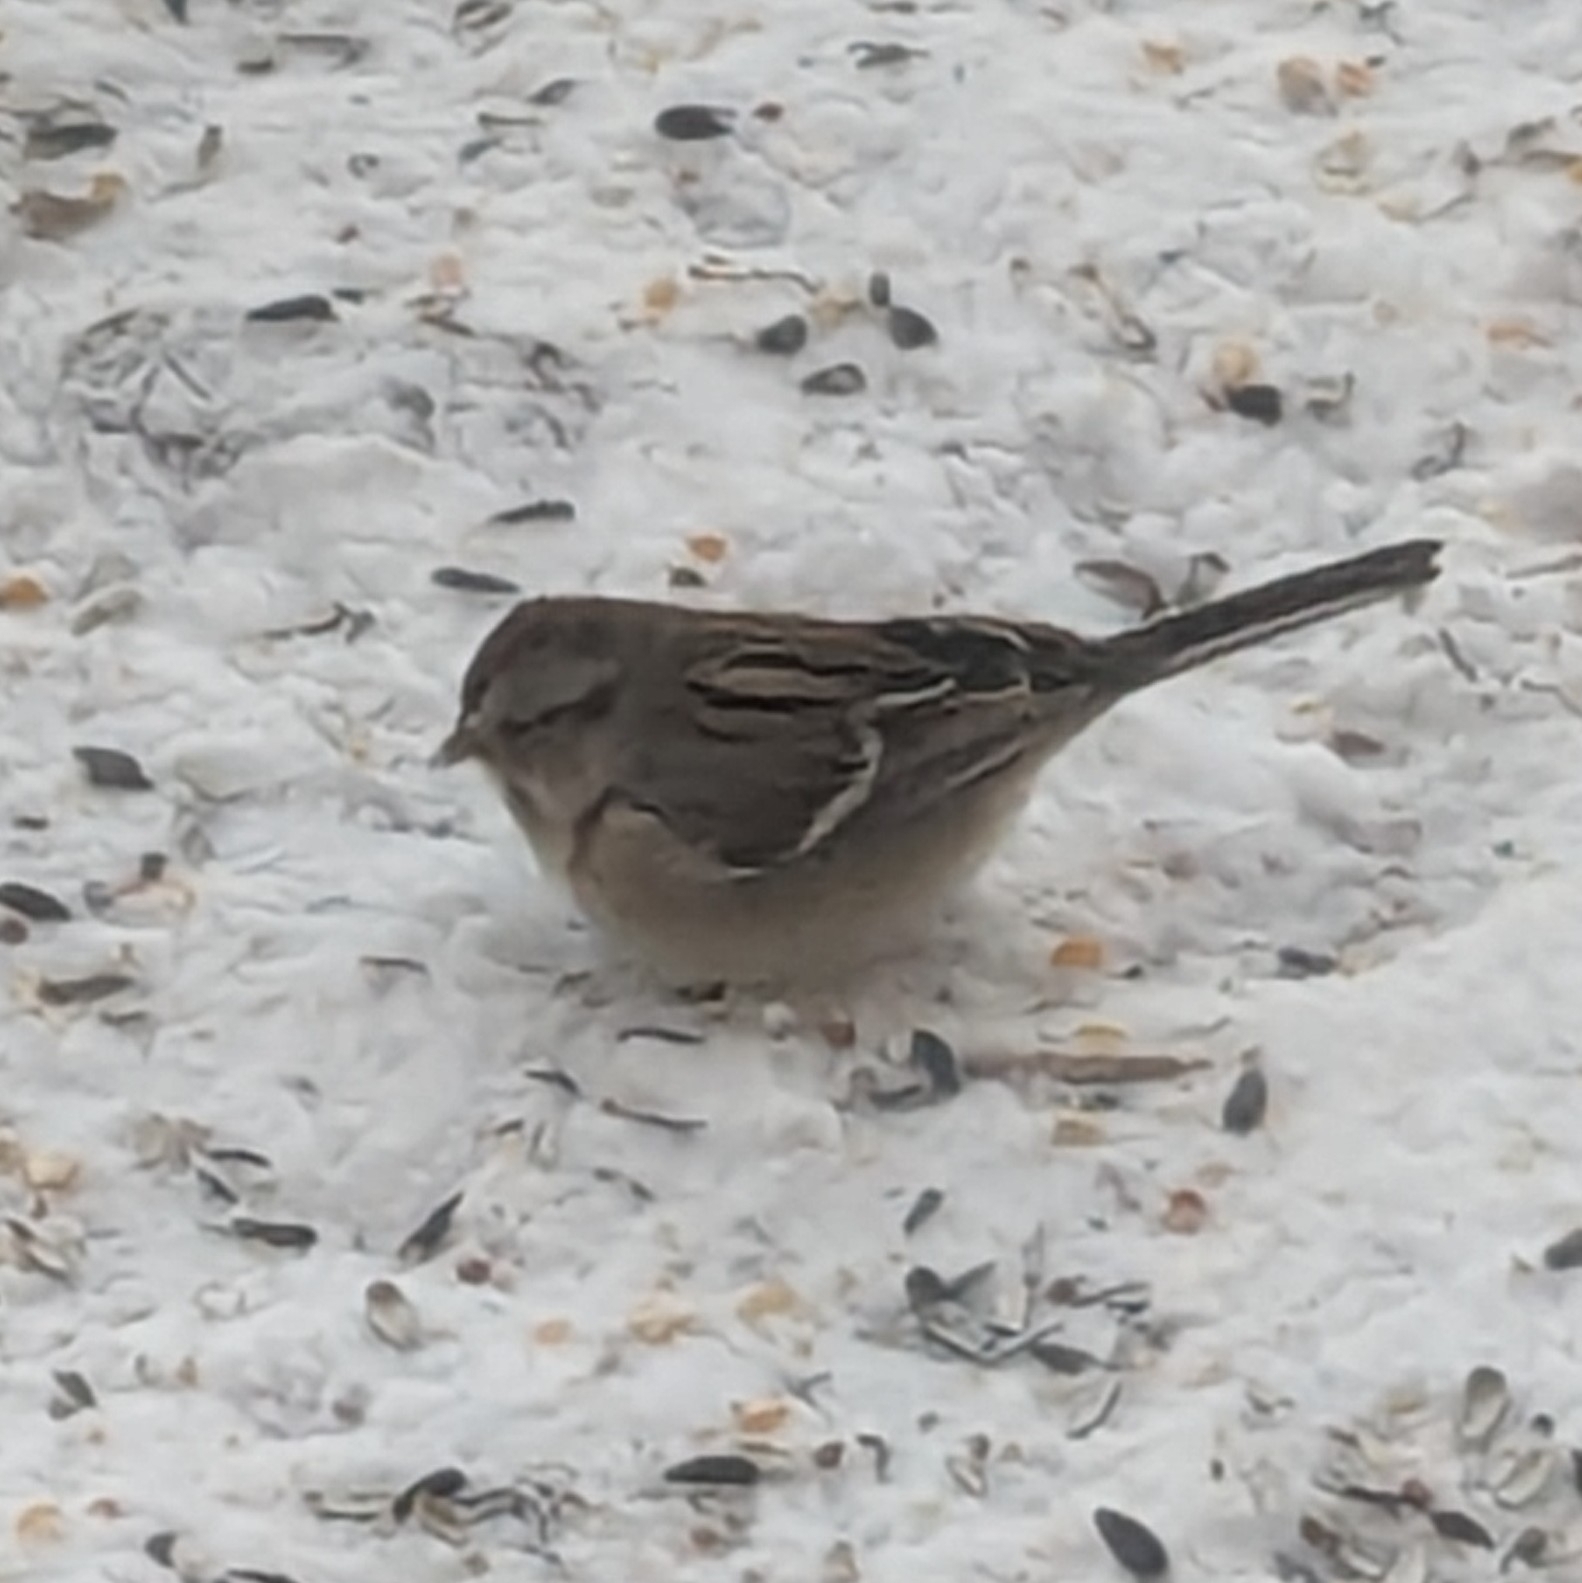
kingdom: Animalia
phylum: Chordata
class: Aves
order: Passeriformes
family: Passerellidae
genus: Spizelloides
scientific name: Spizelloides arborea
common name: American tree sparrow
